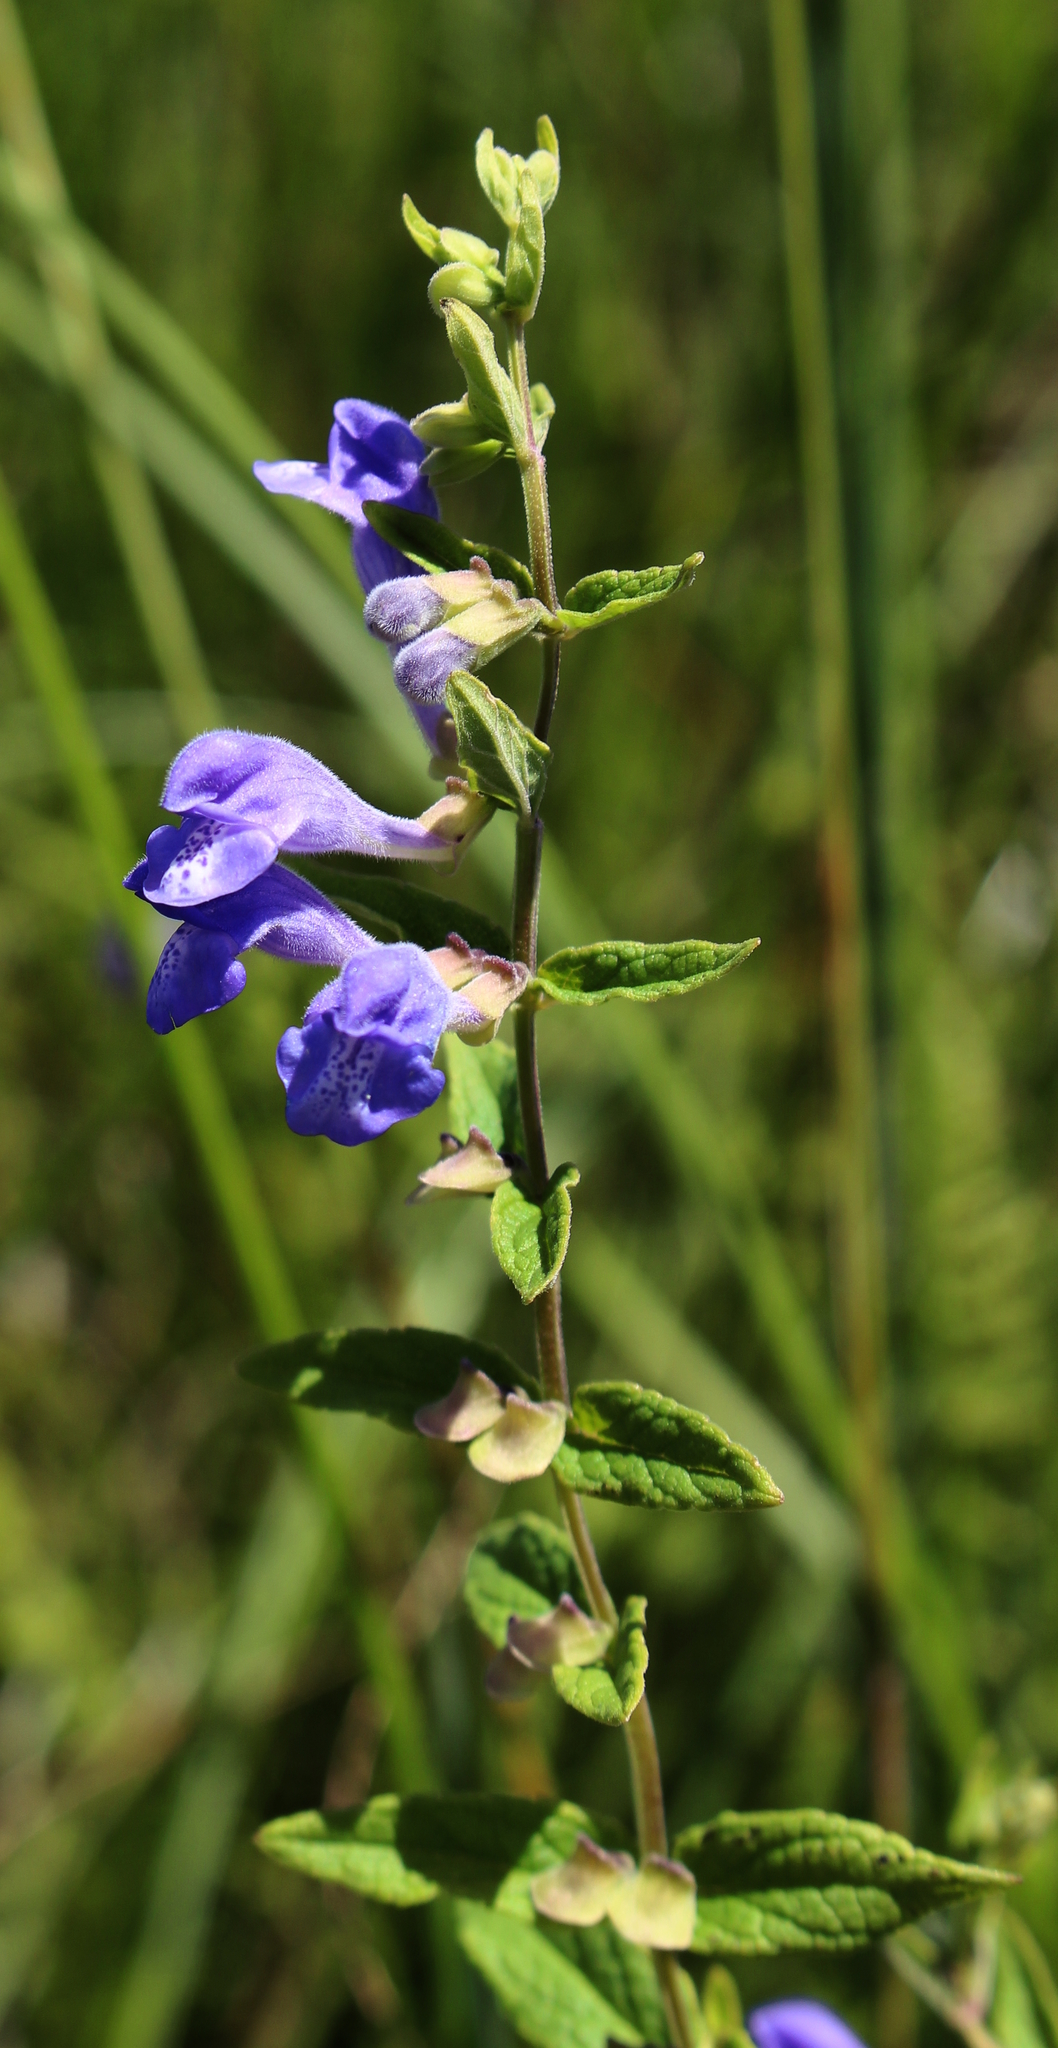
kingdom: Plantae
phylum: Tracheophyta
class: Magnoliopsida
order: Lamiales
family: Lamiaceae
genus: Scutellaria
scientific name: Scutellaria galericulata
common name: Skullcap
